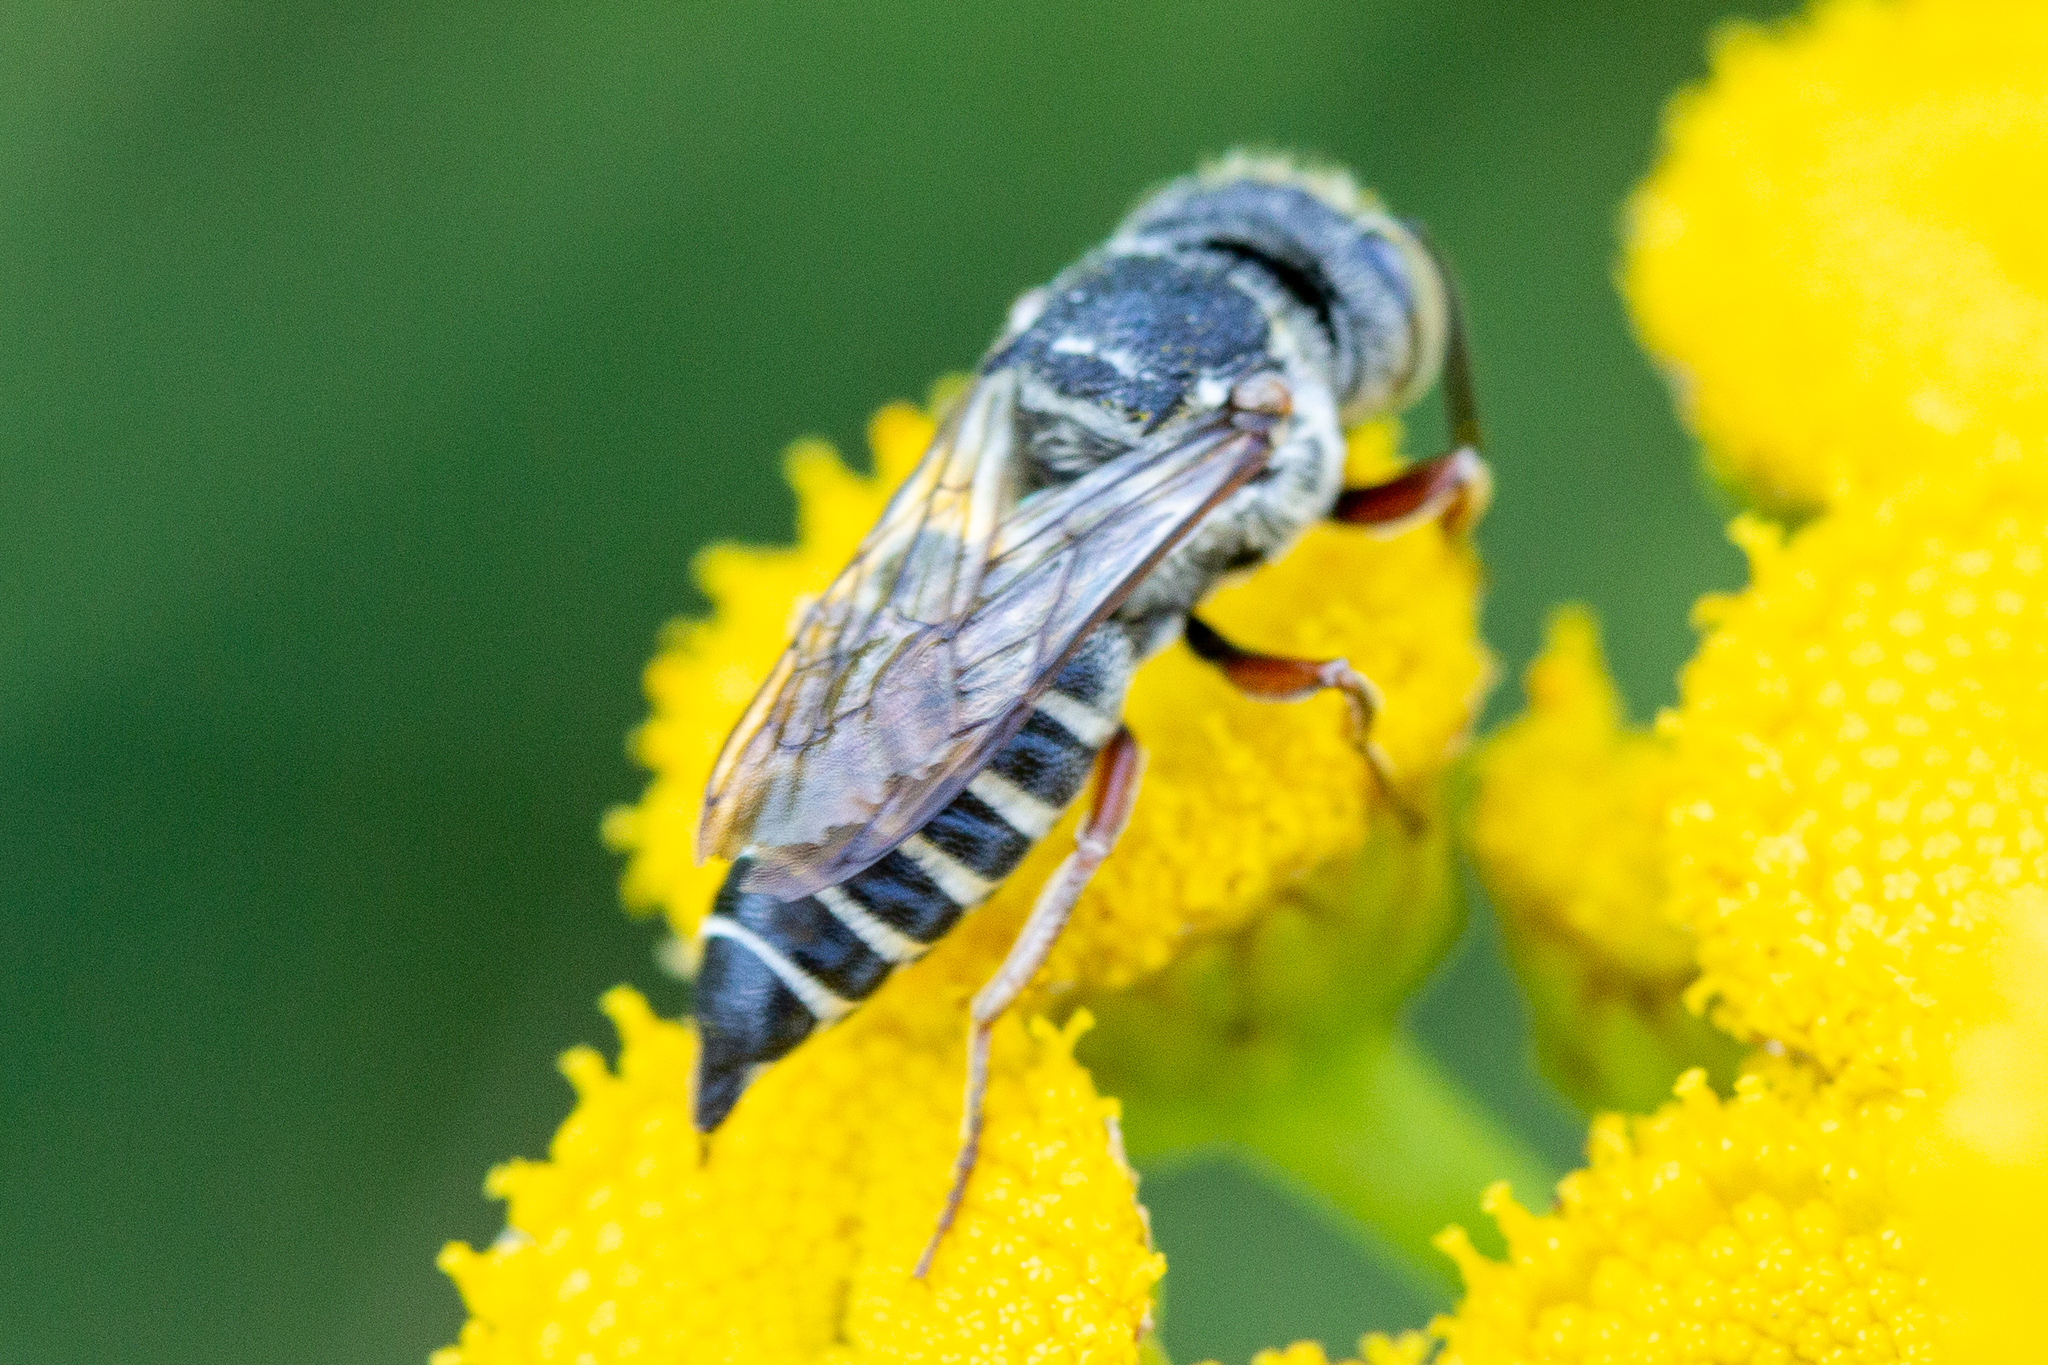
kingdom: Animalia
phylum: Arthropoda
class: Insecta
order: Hymenoptera
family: Megachilidae
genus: Coelioxys
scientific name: Coelioxys octodentatus
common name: Eight-toothed cuckoo leaf-cutter bee
